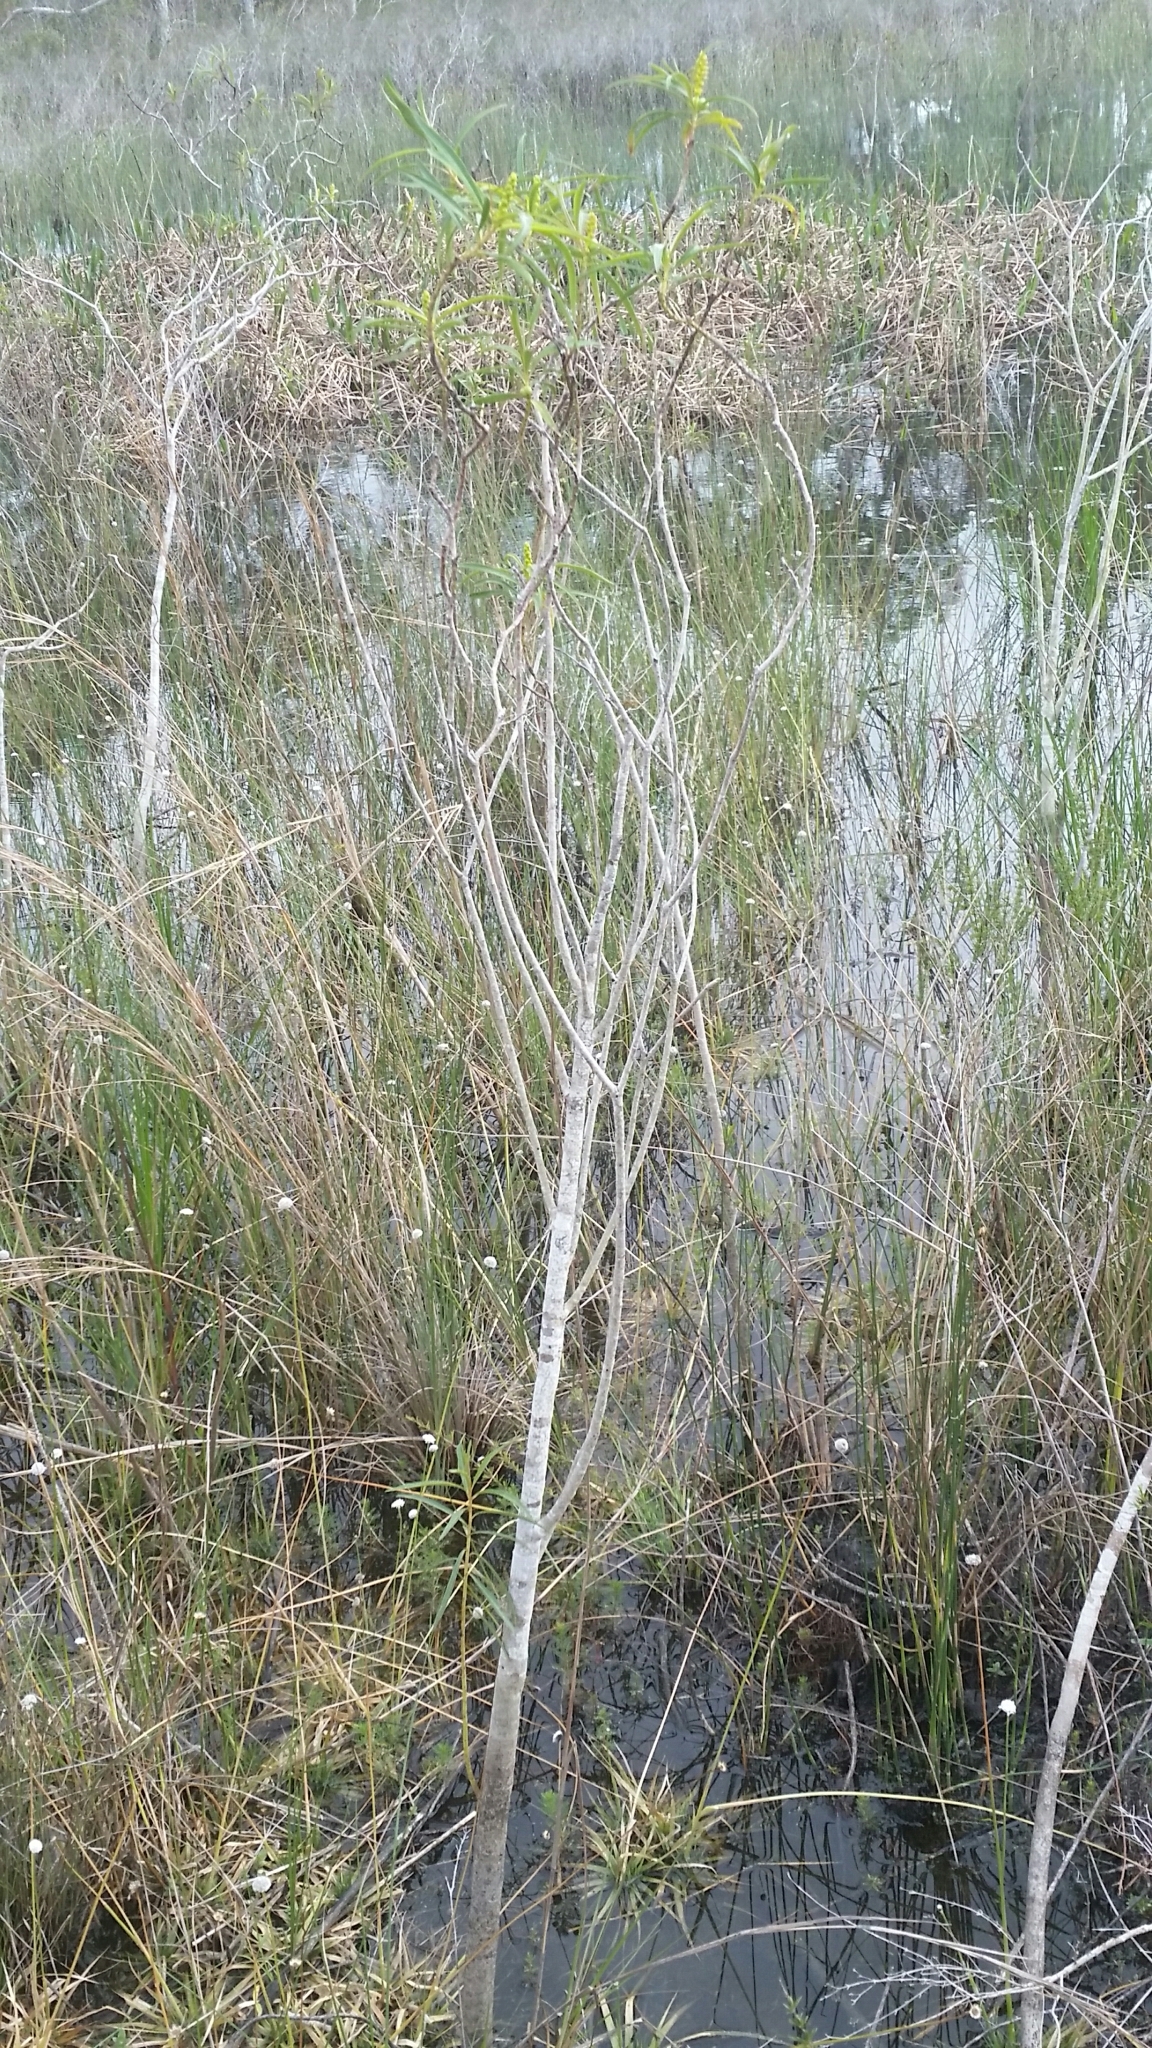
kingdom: Plantae
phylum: Tracheophyta
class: Magnoliopsida
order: Malpighiales
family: Euphorbiaceae
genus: Stillingia
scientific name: Stillingia aquatica
